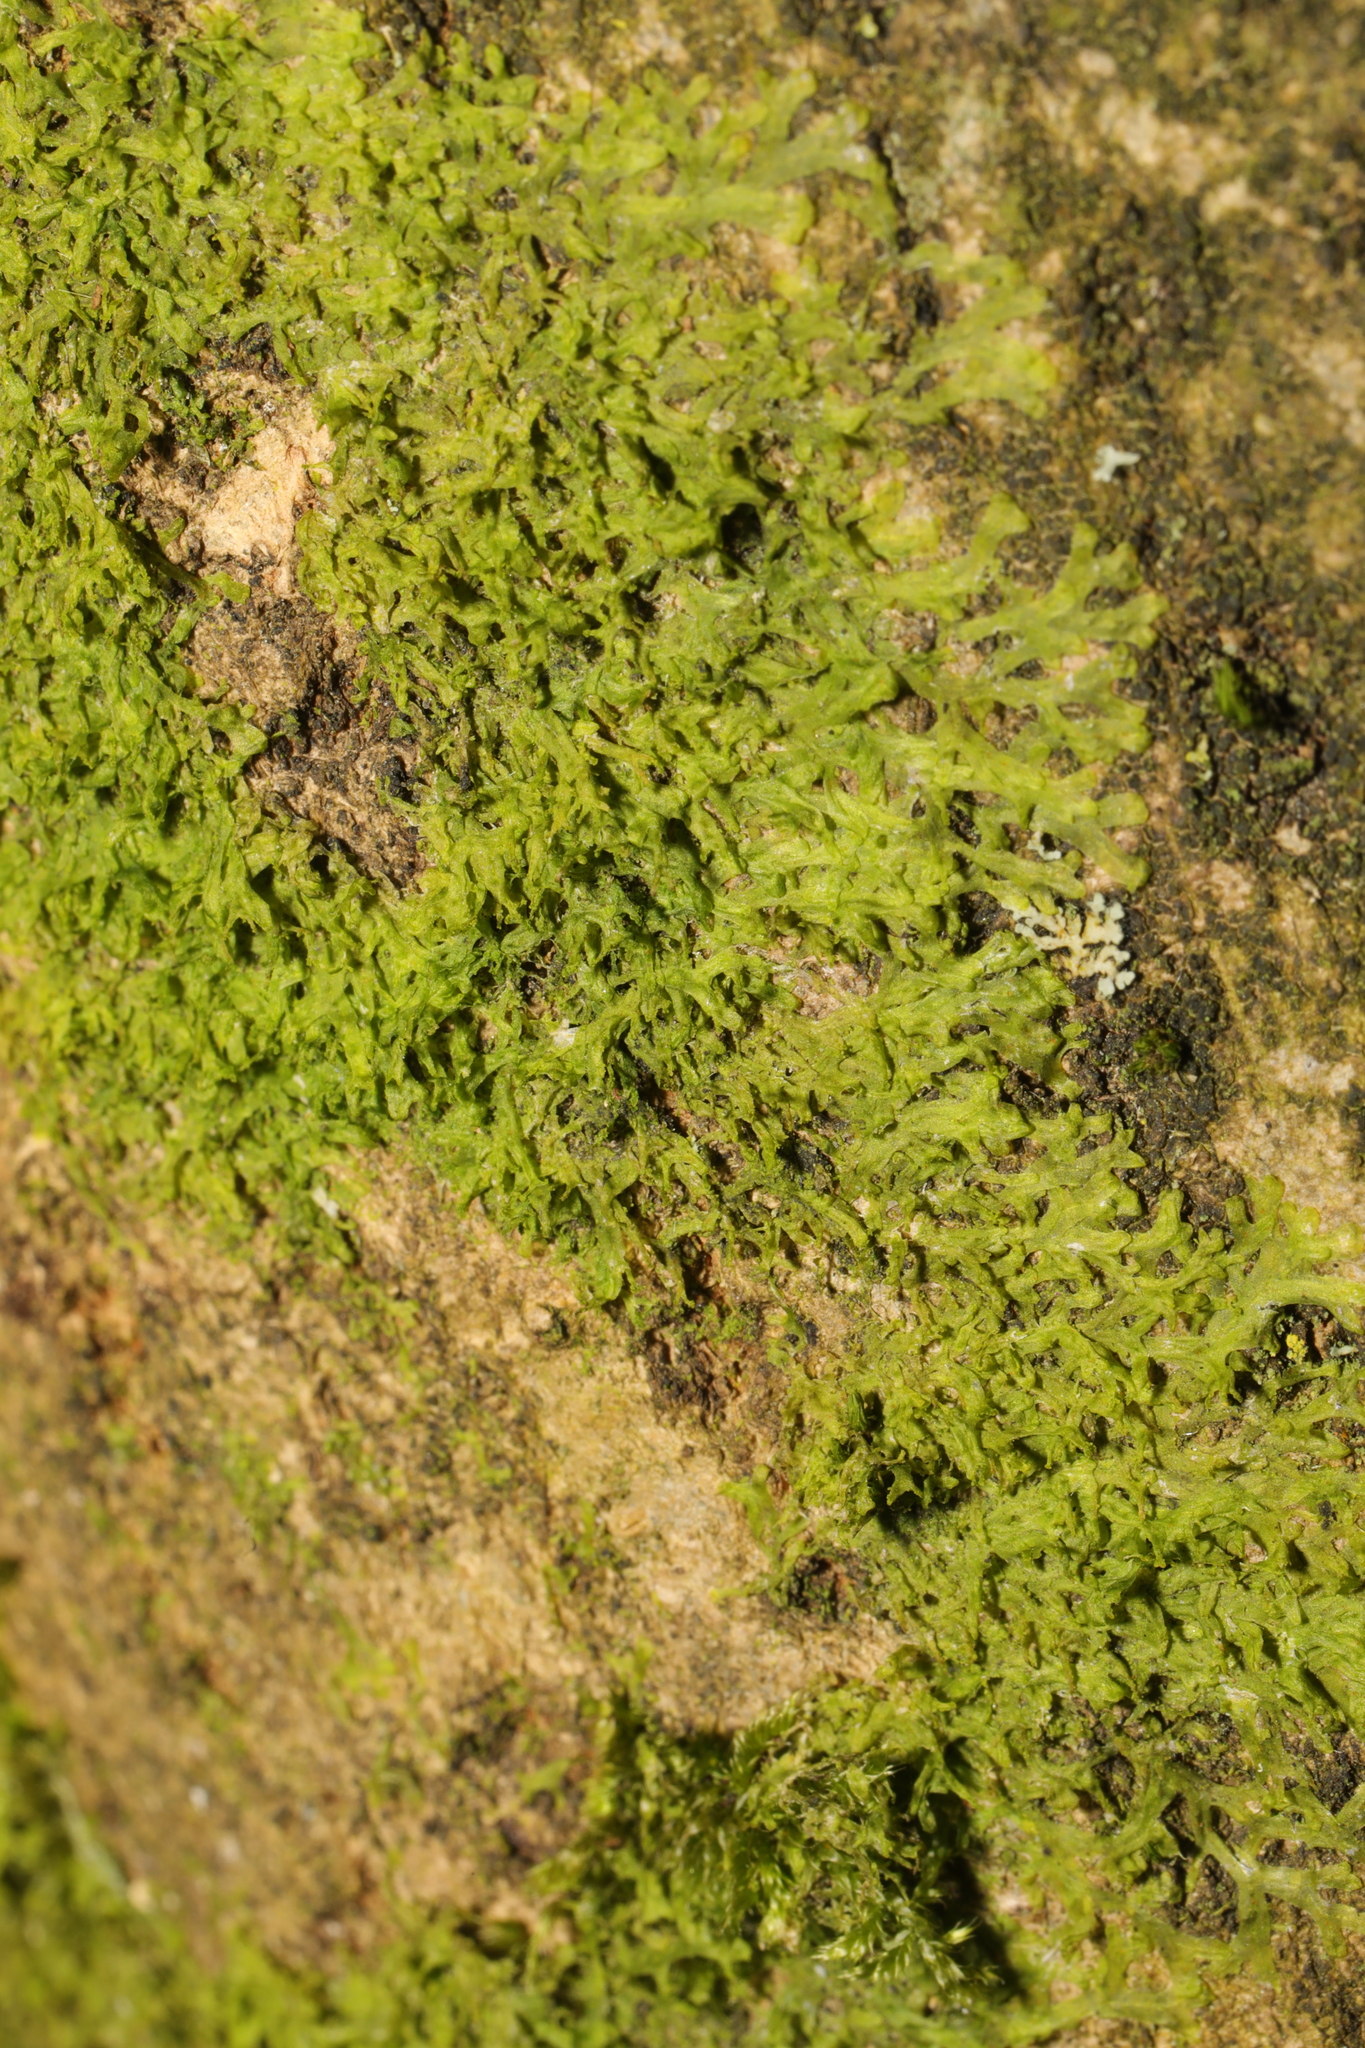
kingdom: Plantae
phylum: Marchantiophyta
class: Jungermanniopsida
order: Metzgeriales
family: Metzgeriaceae
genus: Metzgeria
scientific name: Metzgeria furcata
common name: Forked veilwort
